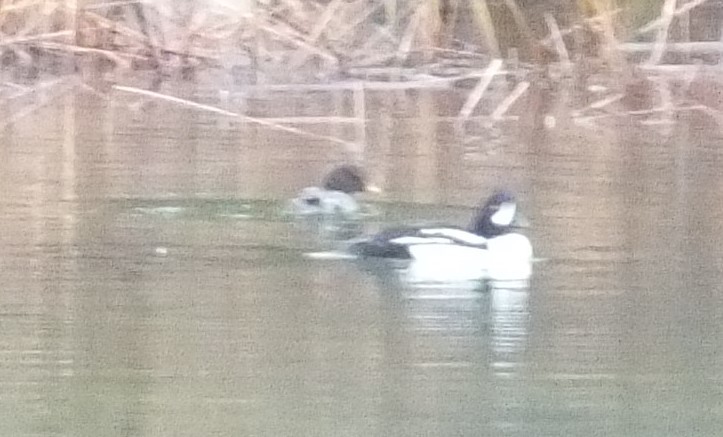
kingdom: Animalia
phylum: Chordata
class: Aves
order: Anseriformes
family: Anatidae
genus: Bucephala
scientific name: Bucephala islandica
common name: Barrow's goldeneye
